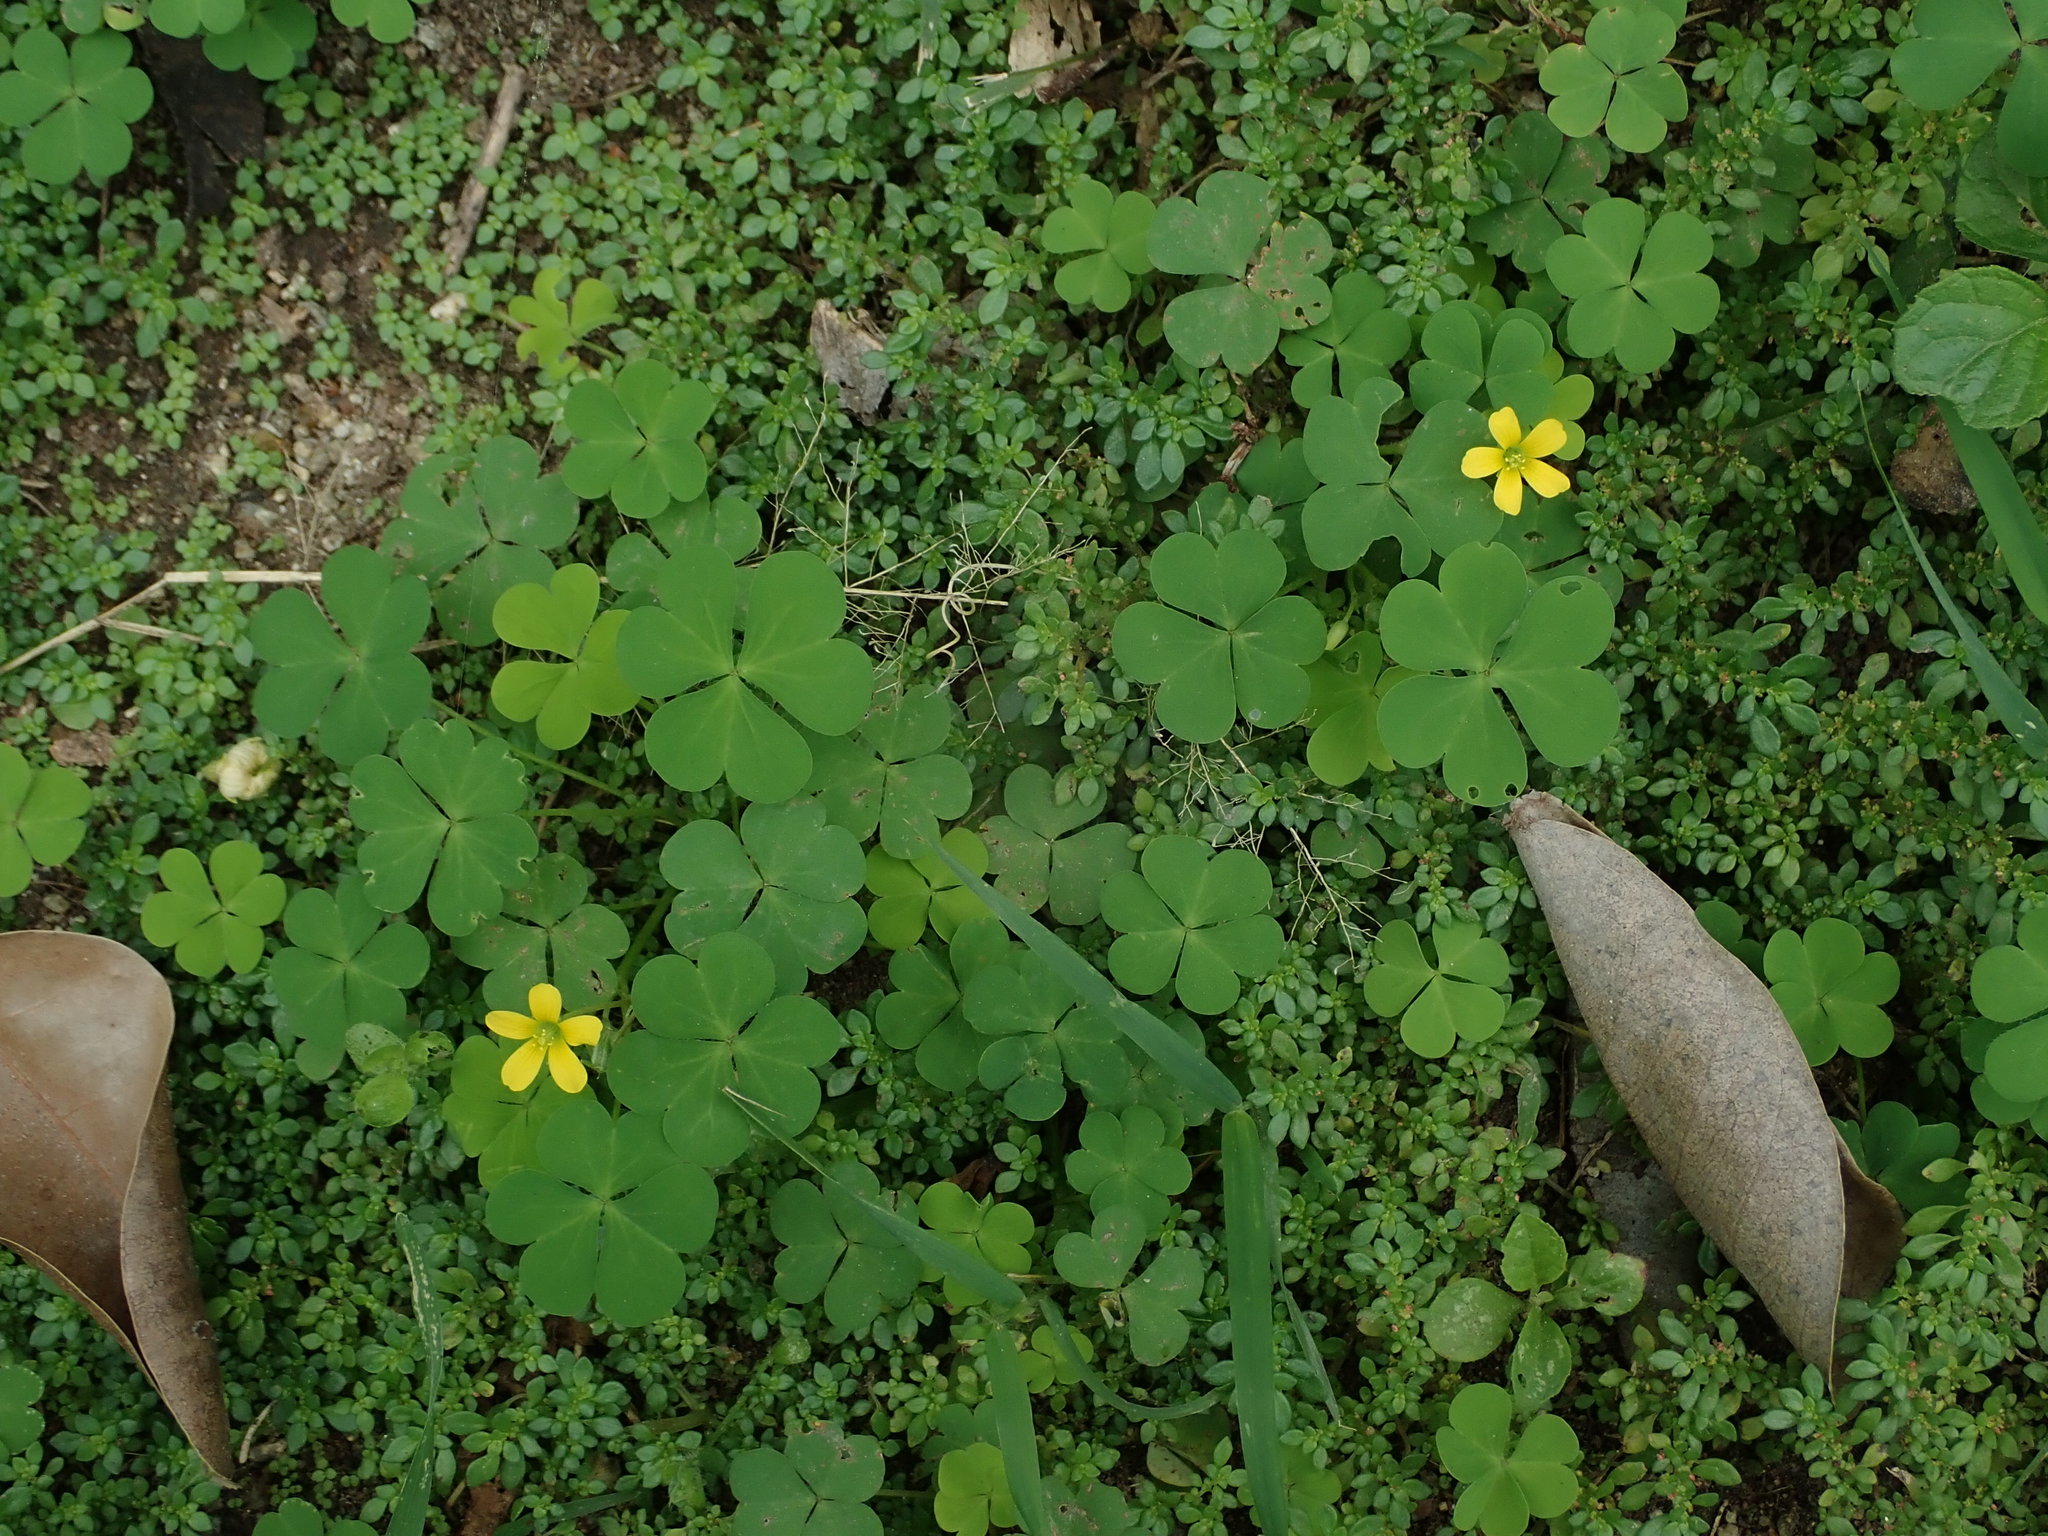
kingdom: Plantae
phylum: Tracheophyta
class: Magnoliopsida
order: Oxalidales
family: Oxalidaceae
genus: Oxalis
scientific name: Oxalis corniculata
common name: Procumbent yellow-sorrel
